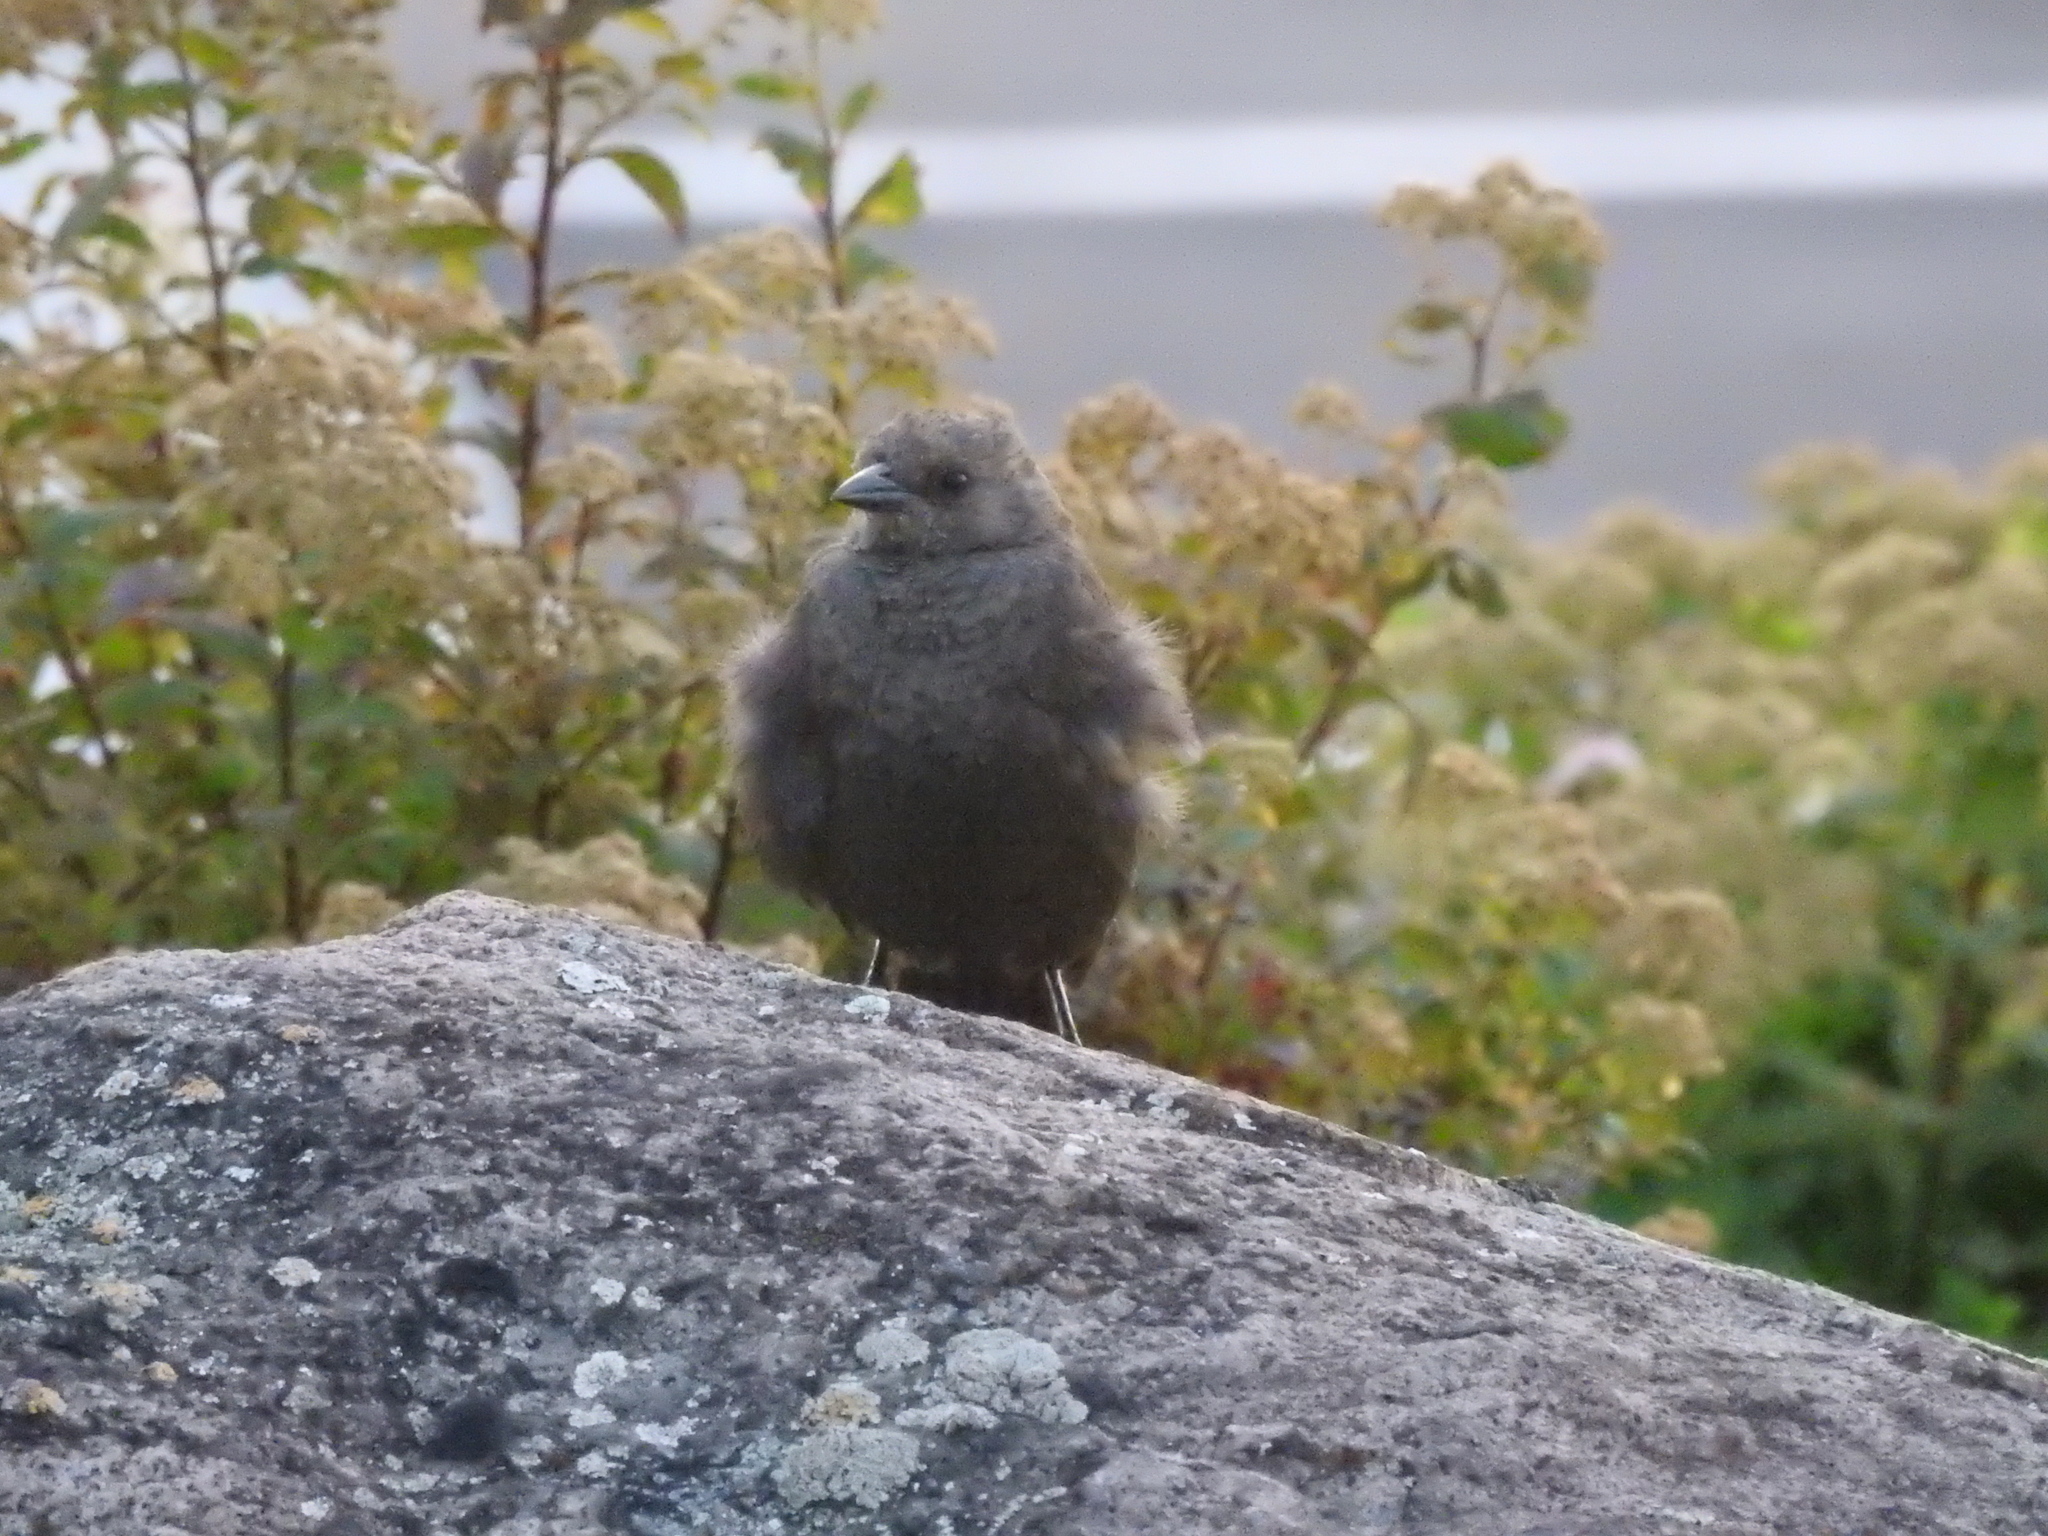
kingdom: Animalia
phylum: Chordata
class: Aves
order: Passeriformes
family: Icteridae
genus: Euphagus
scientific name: Euphagus cyanocephalus
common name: Brewer's blackbird
